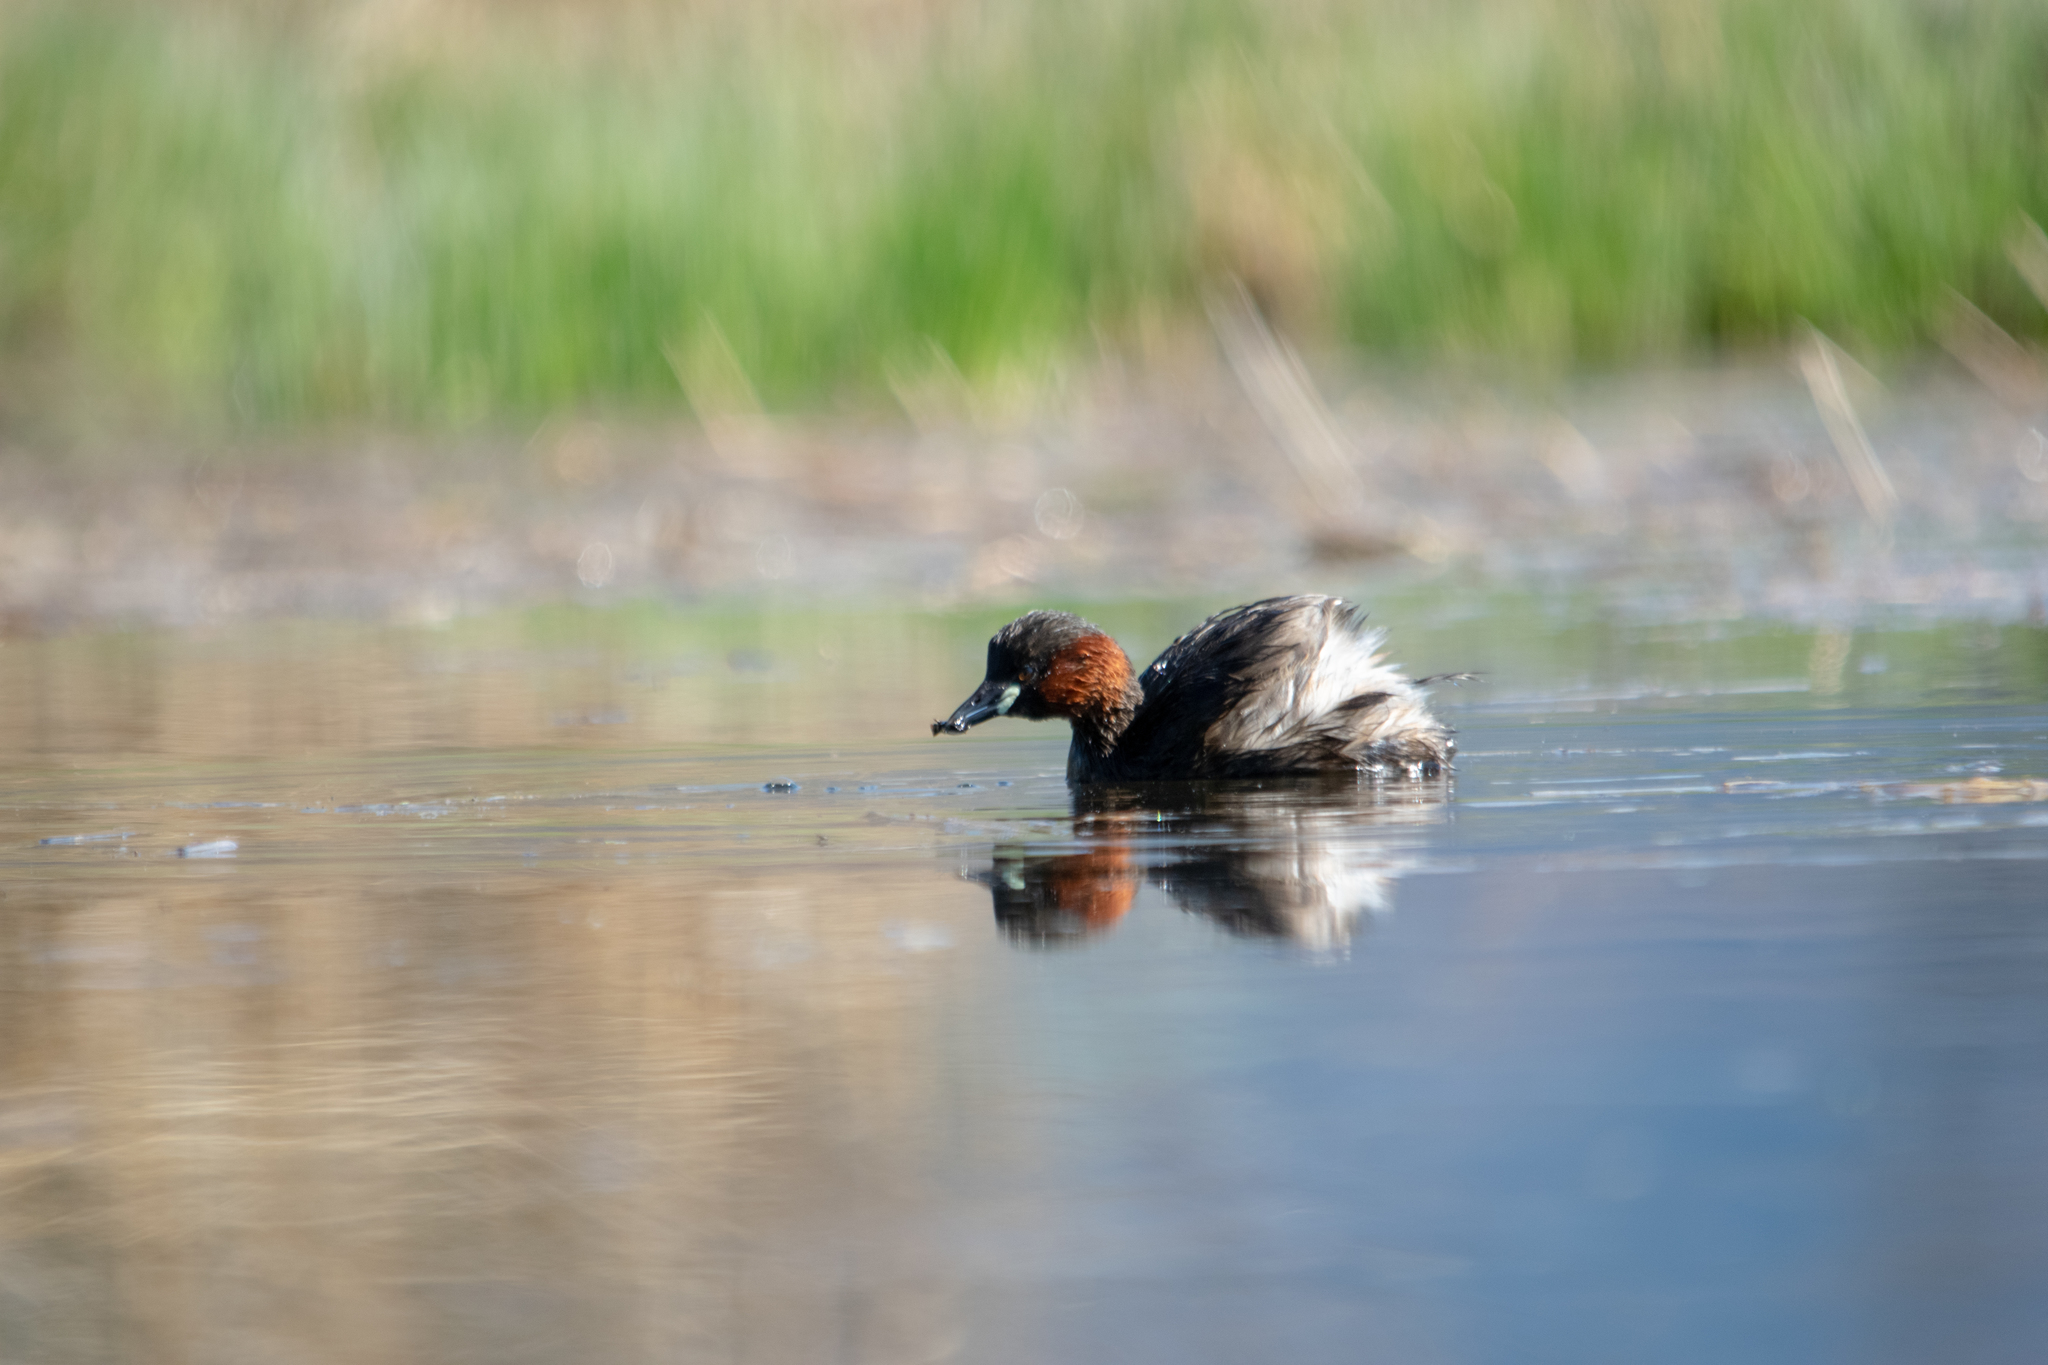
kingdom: Animalia
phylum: Chordata
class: Aves
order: Podicipediformes
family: Podicipedidae
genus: Tachybaptus
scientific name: Tachybaptus ruficollis
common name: Little grebe
